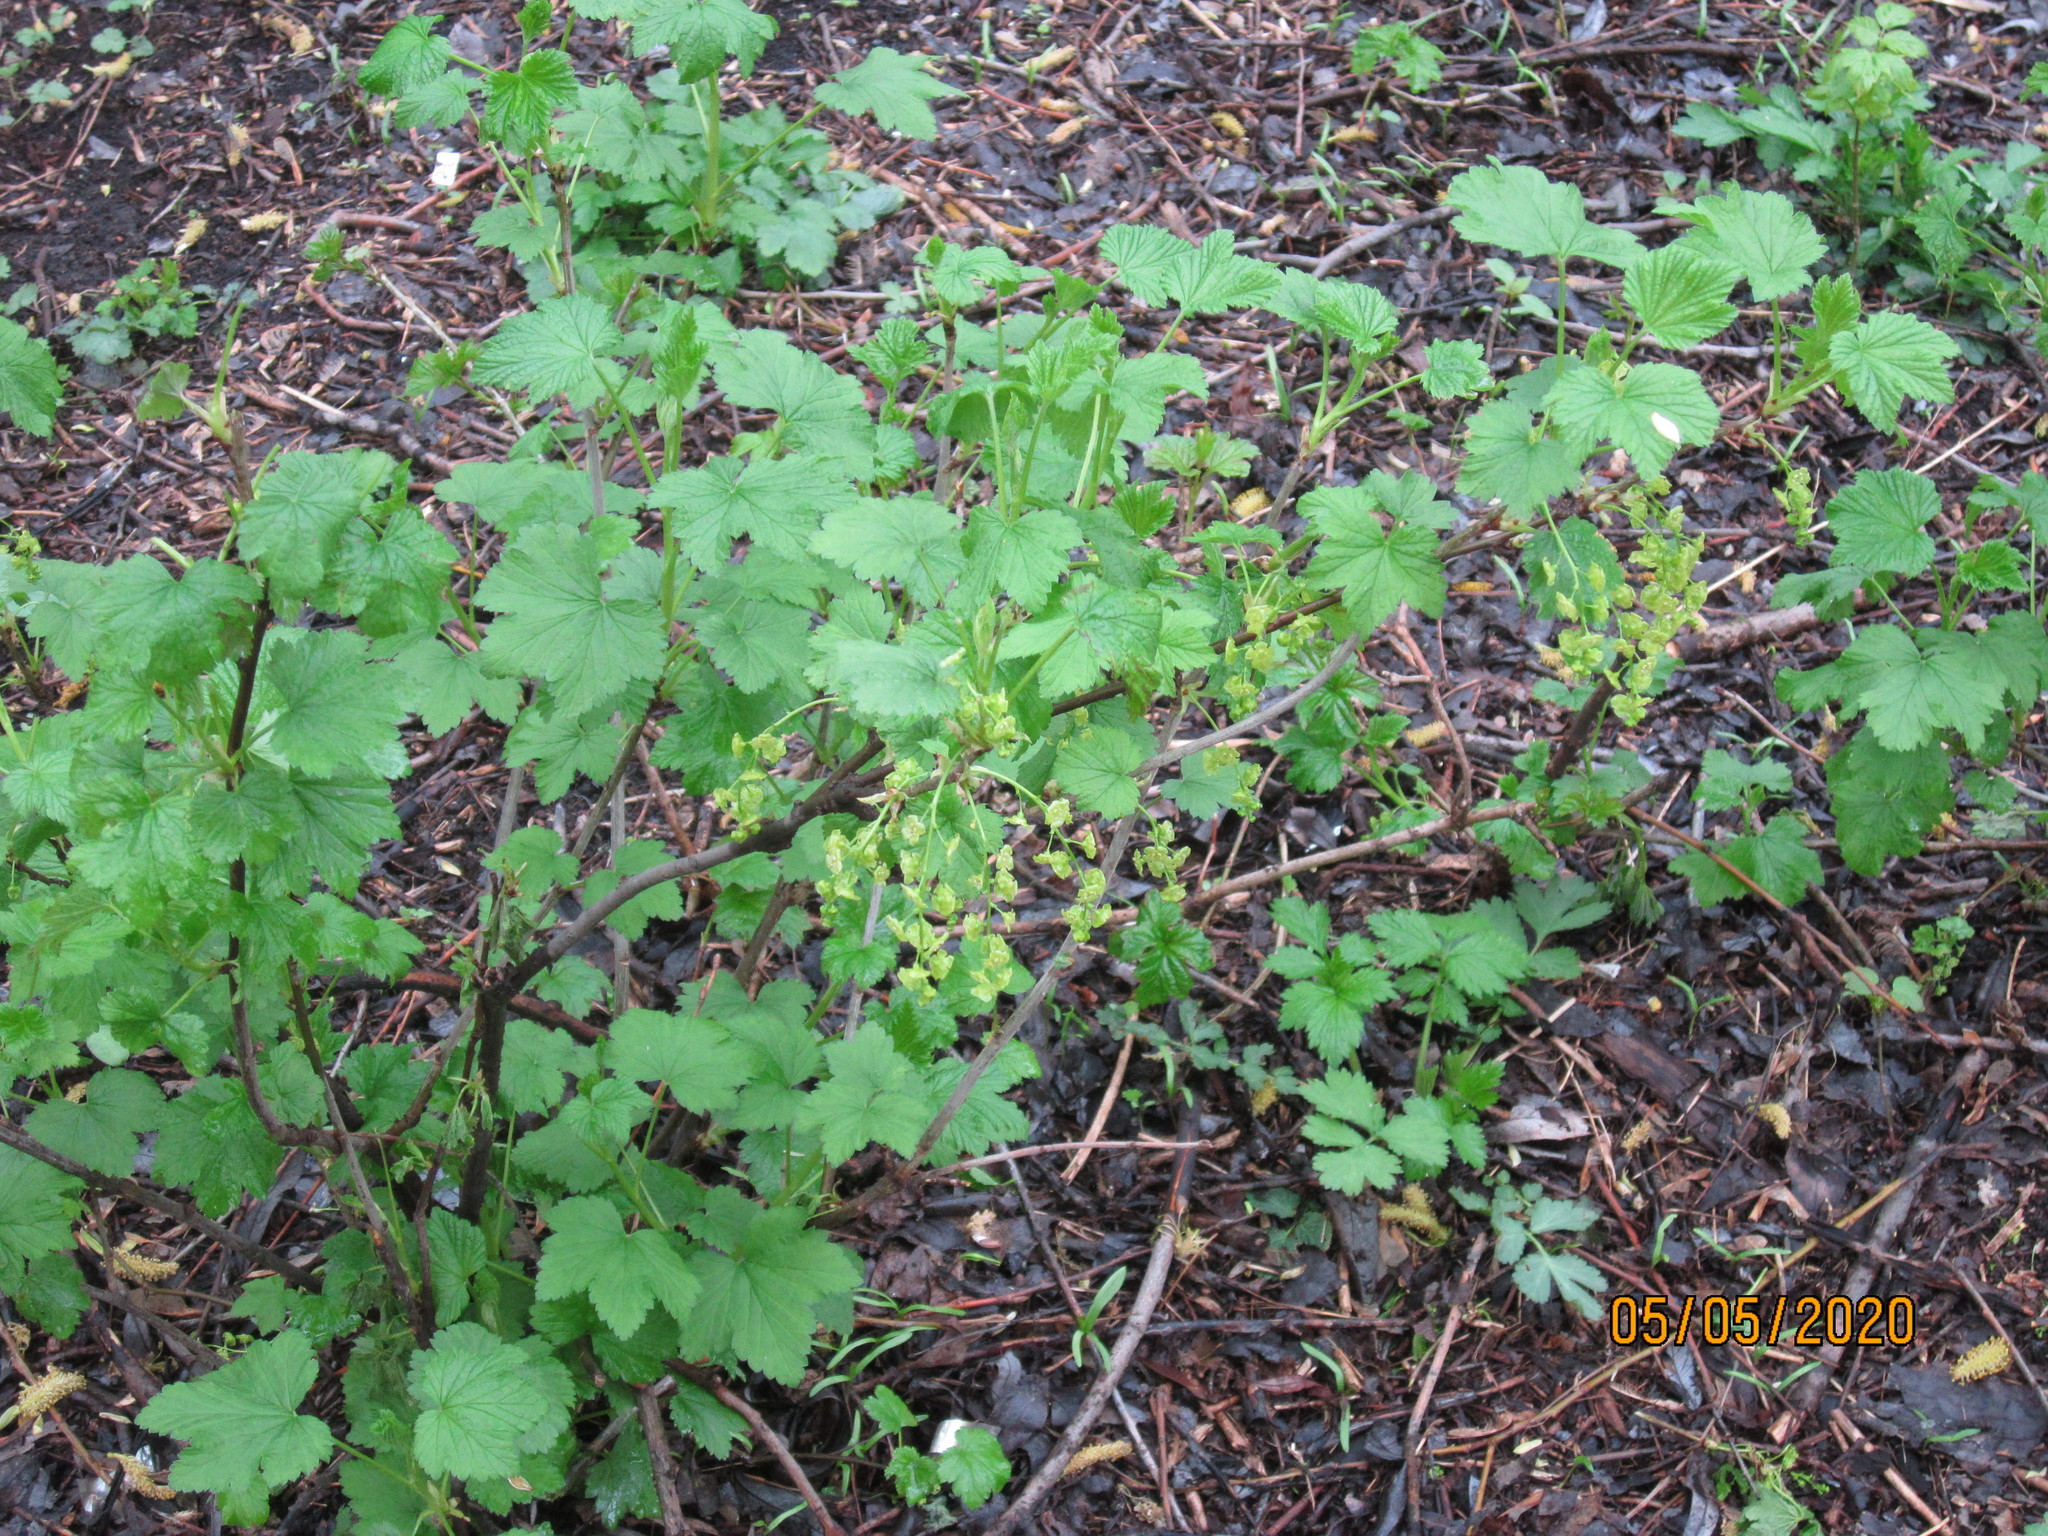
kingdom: Plantae
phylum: Tracheophyta
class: Magnoliopsida
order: Saxifragales
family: Grossulariaceae
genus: Ribes
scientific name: Ribes rubrum
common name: Red currant
